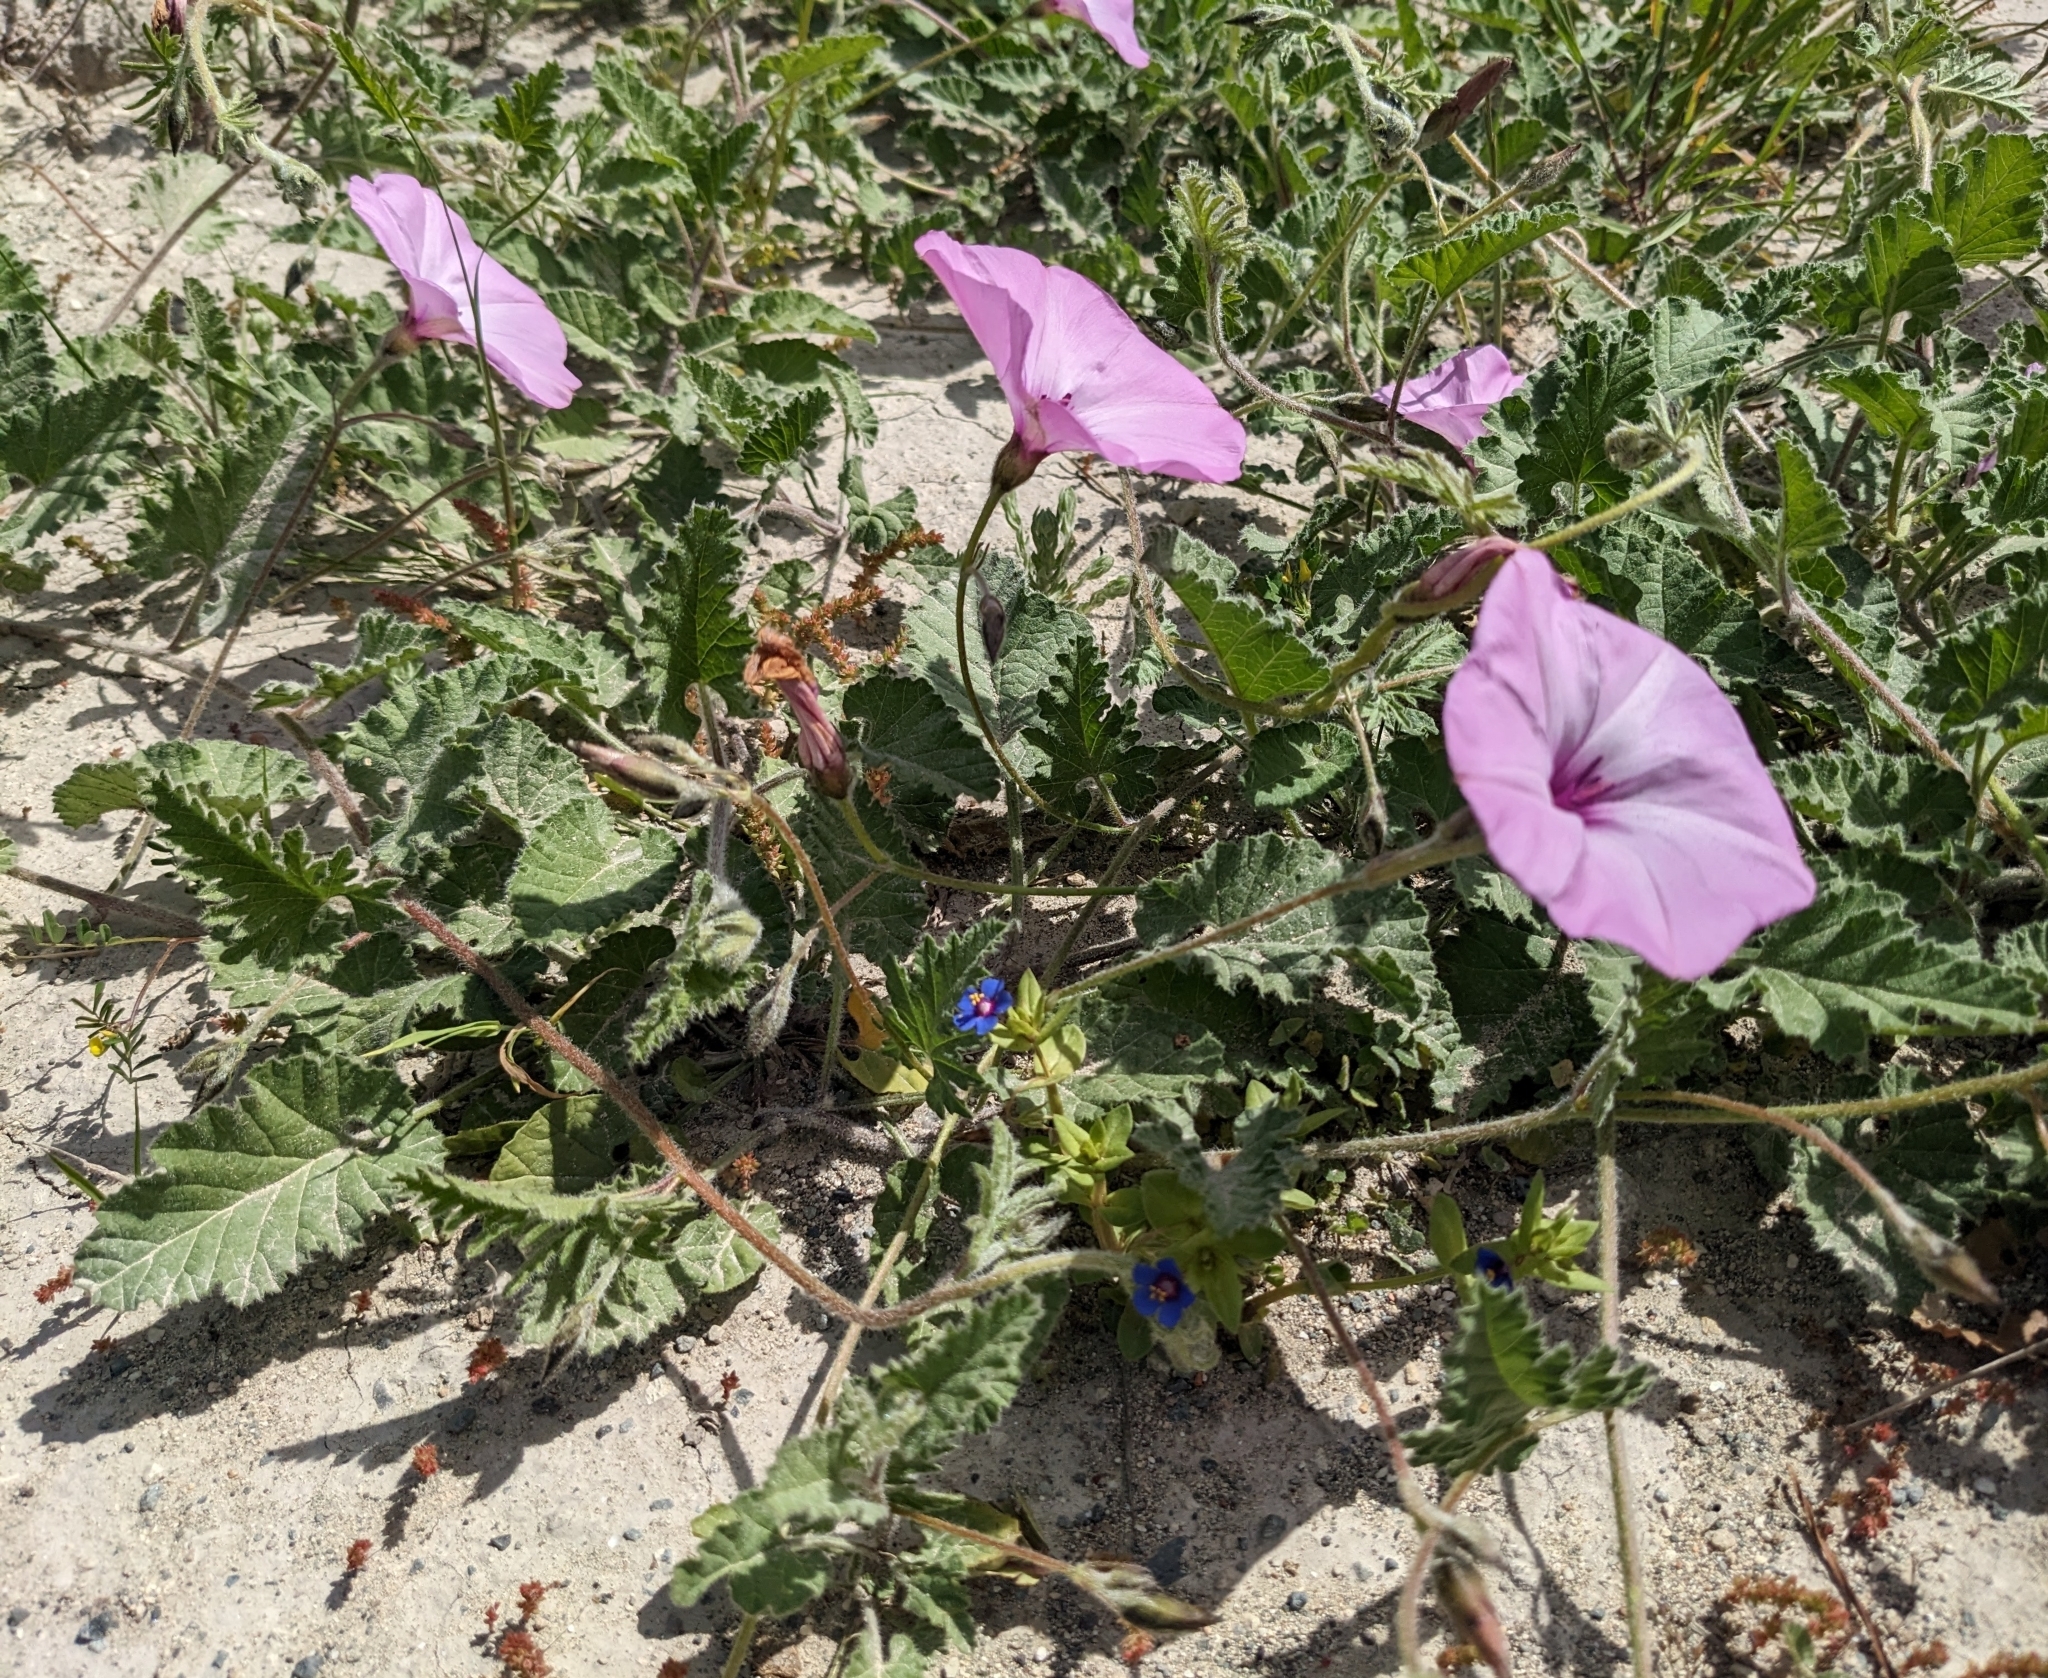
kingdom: Plantae
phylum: Tracheophyta
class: Magnoliopsida
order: Solanales
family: Convolvulaceae
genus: Convolvulus
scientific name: Convolvulus althaeoides
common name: Mallow bindweed
